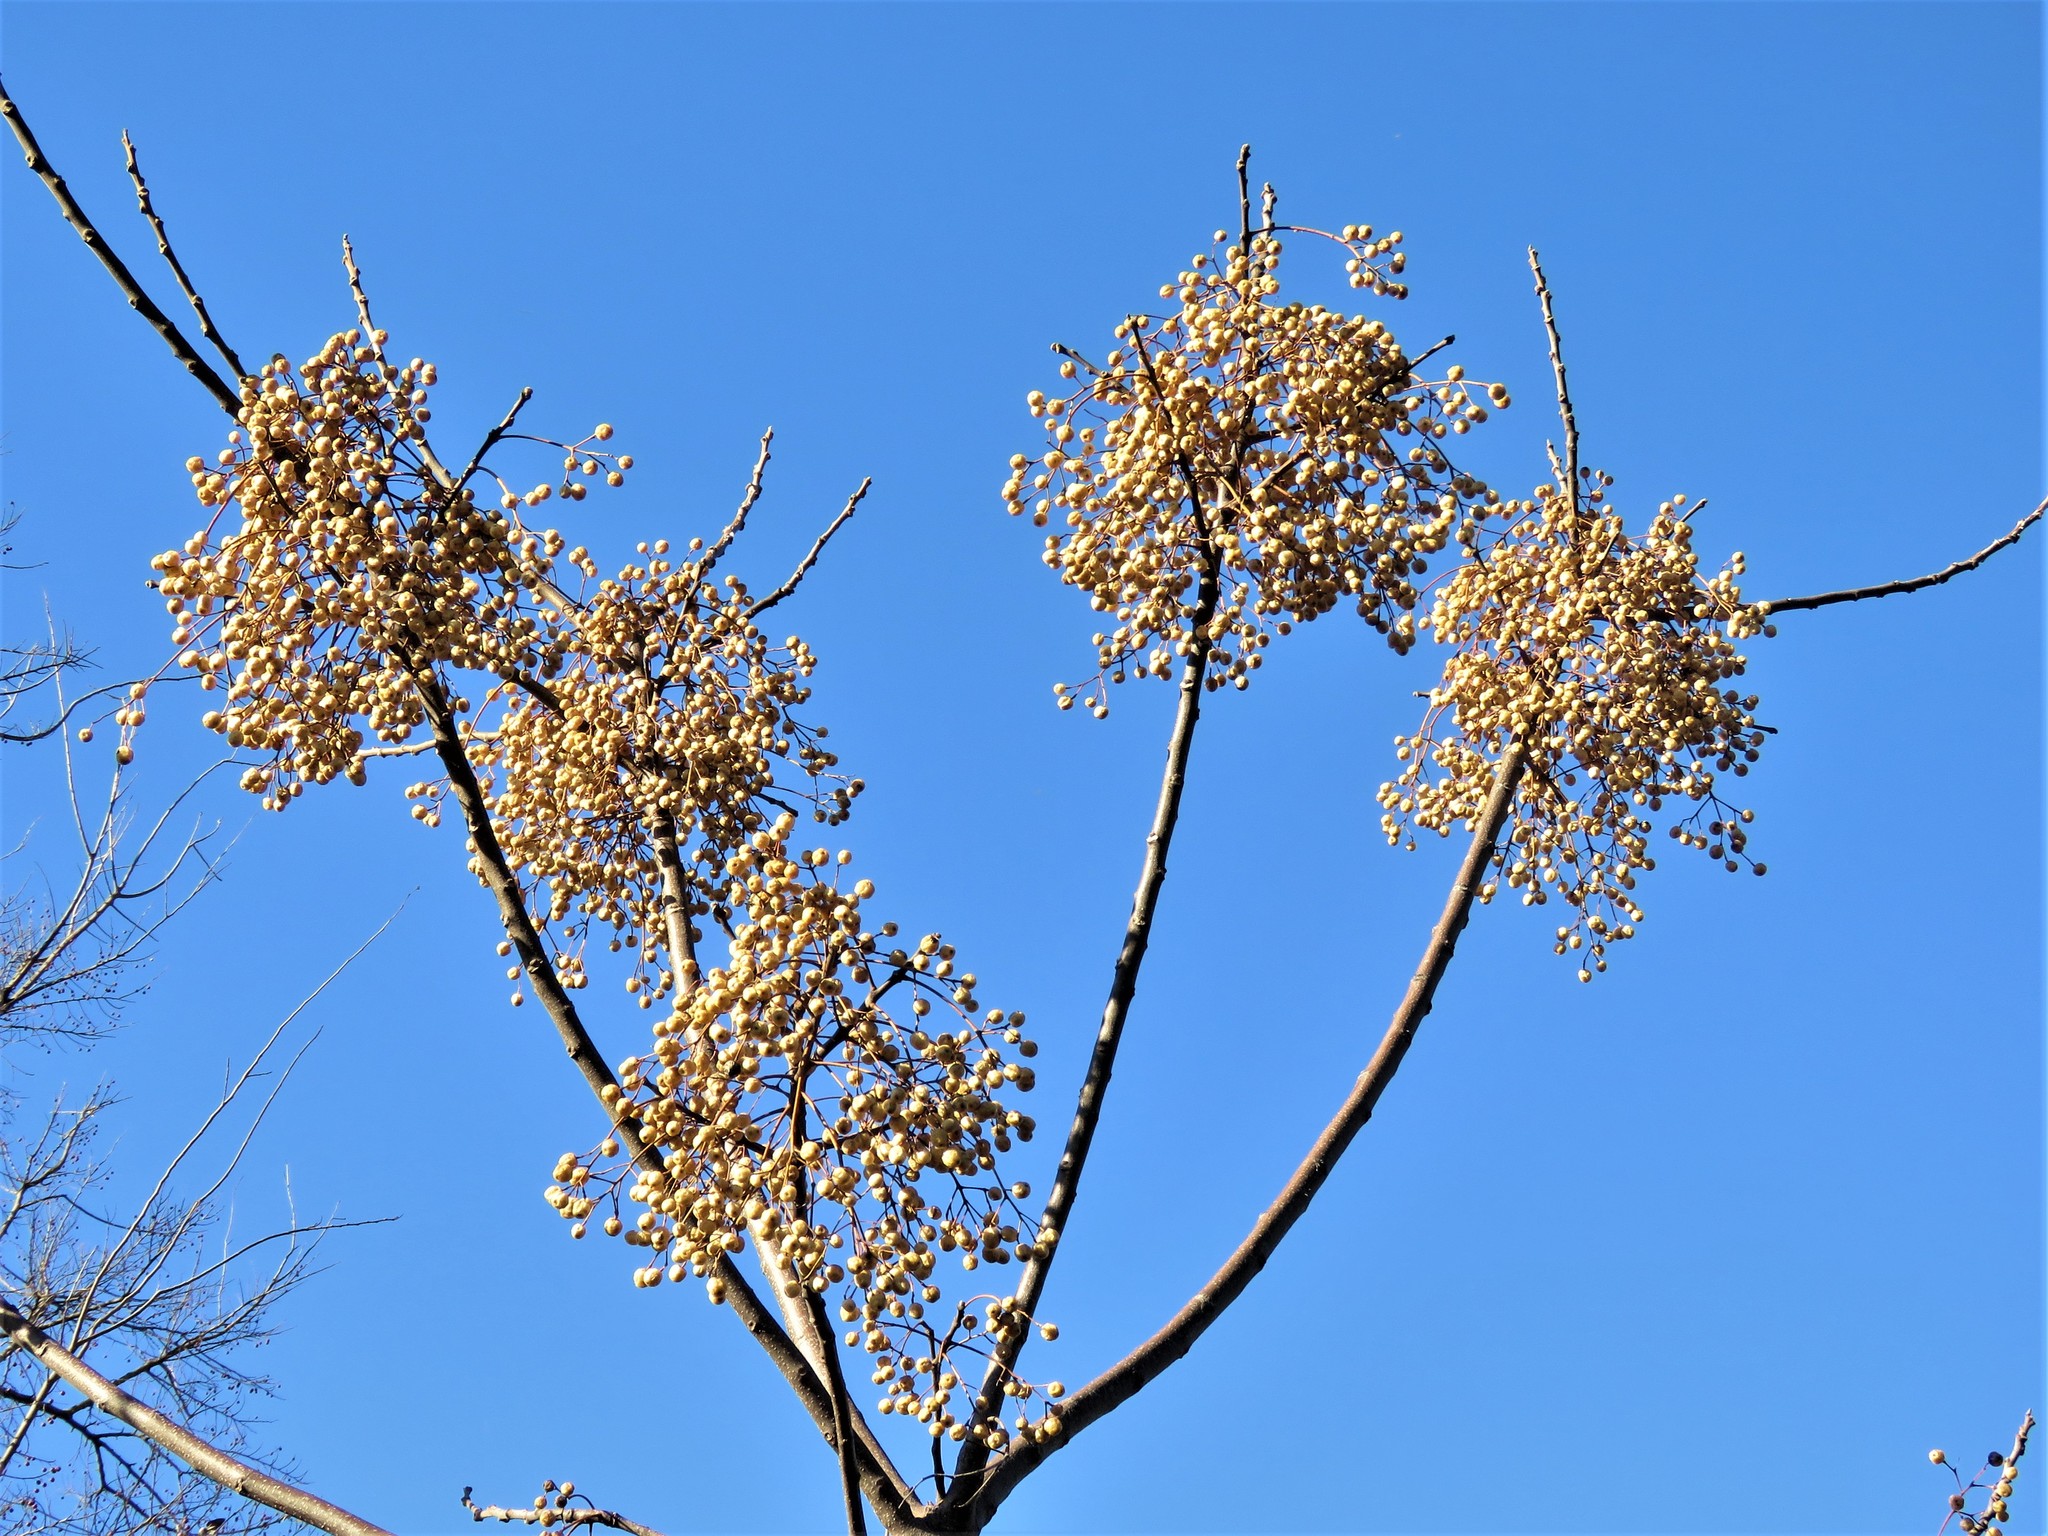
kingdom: Plantae
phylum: Tracheophyta
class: Magnoliopsida
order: Sapindales
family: Meliaceae
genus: Melia
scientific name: Melia azedarach
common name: Chinaberrytree
